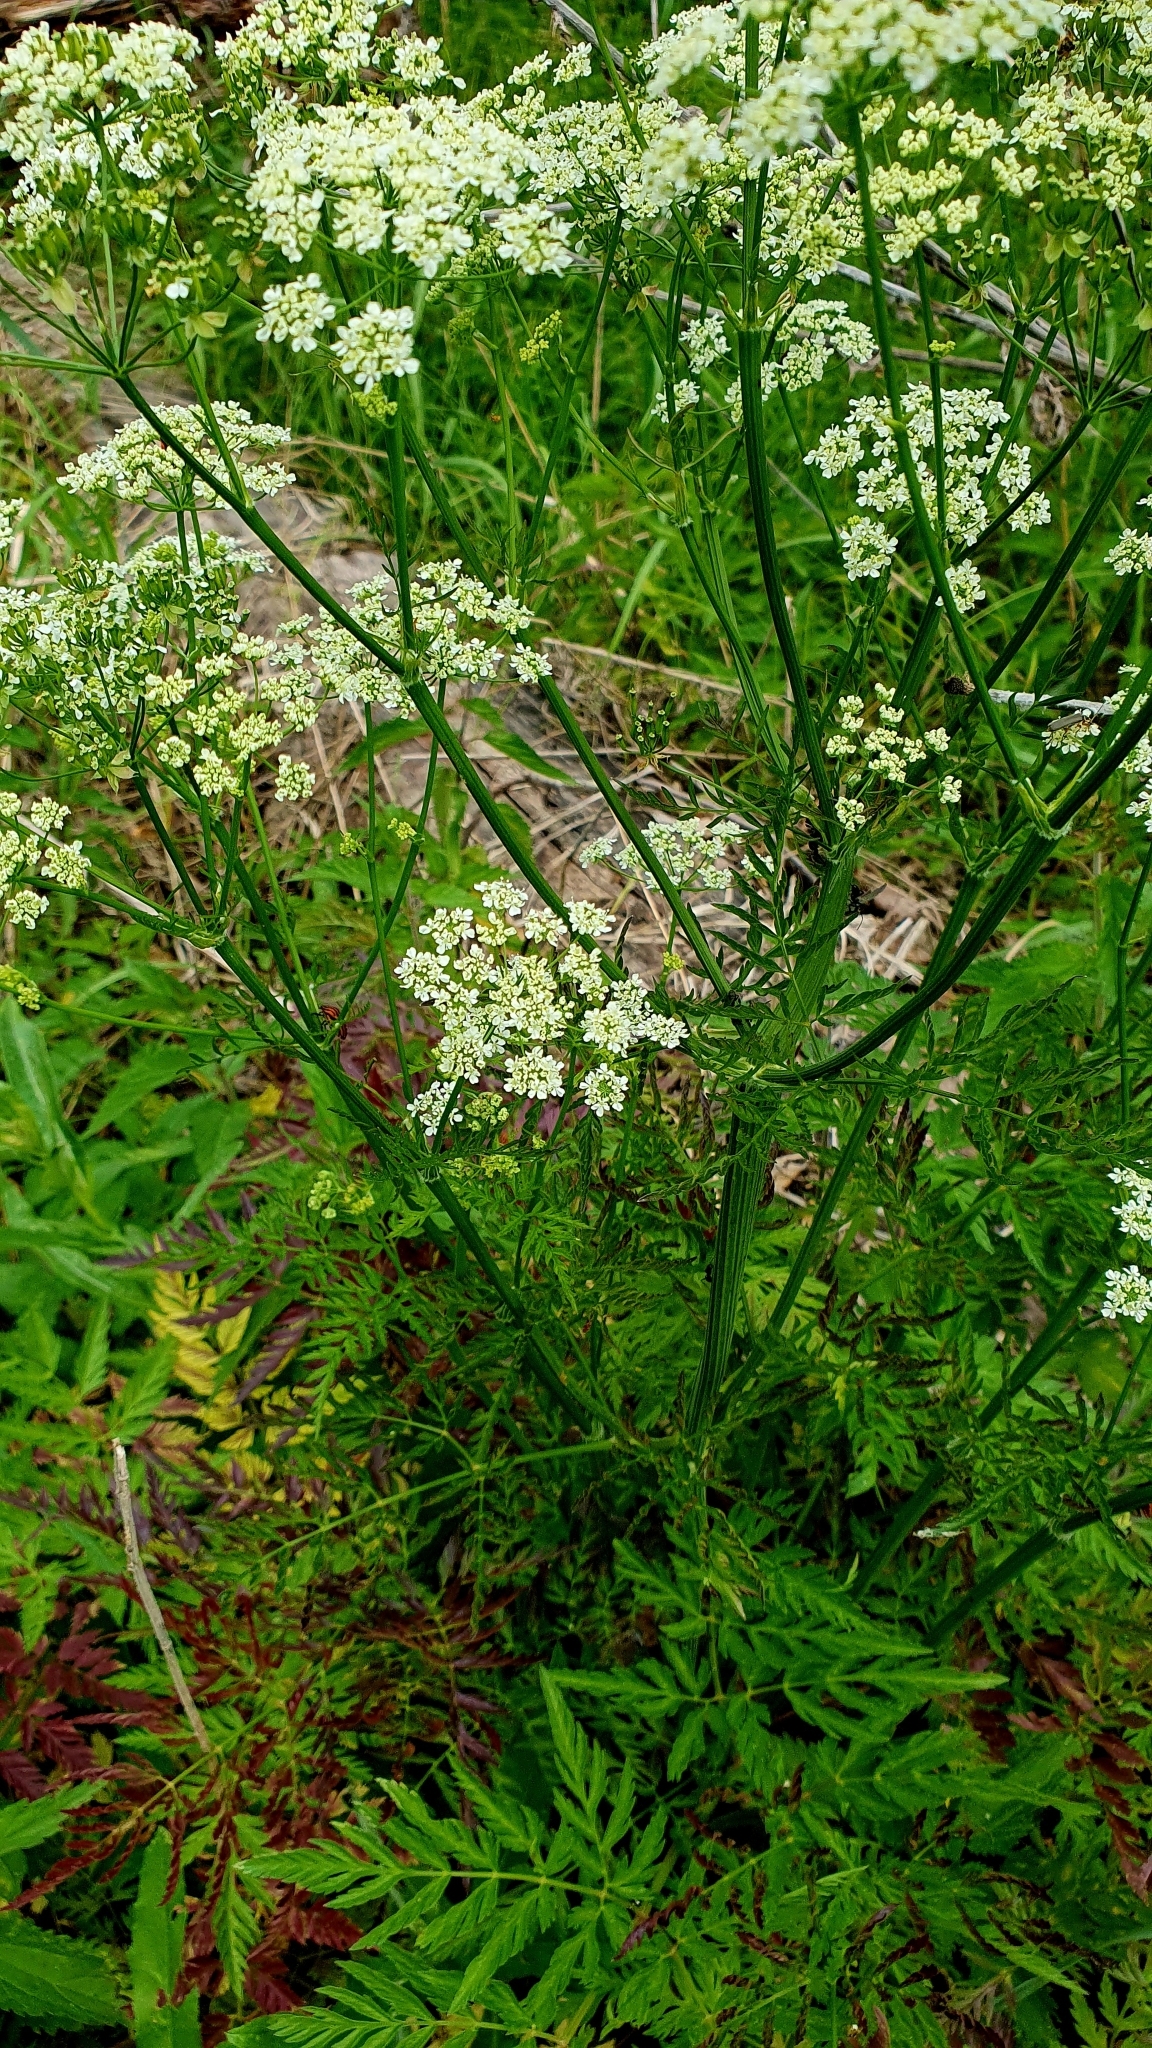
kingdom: Plantae
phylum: Tracheophyta
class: Magnoliopsida
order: Apiales
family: Apiaceae
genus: Anthriscus
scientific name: Anthriscus sylvestris
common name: Cow parsley
